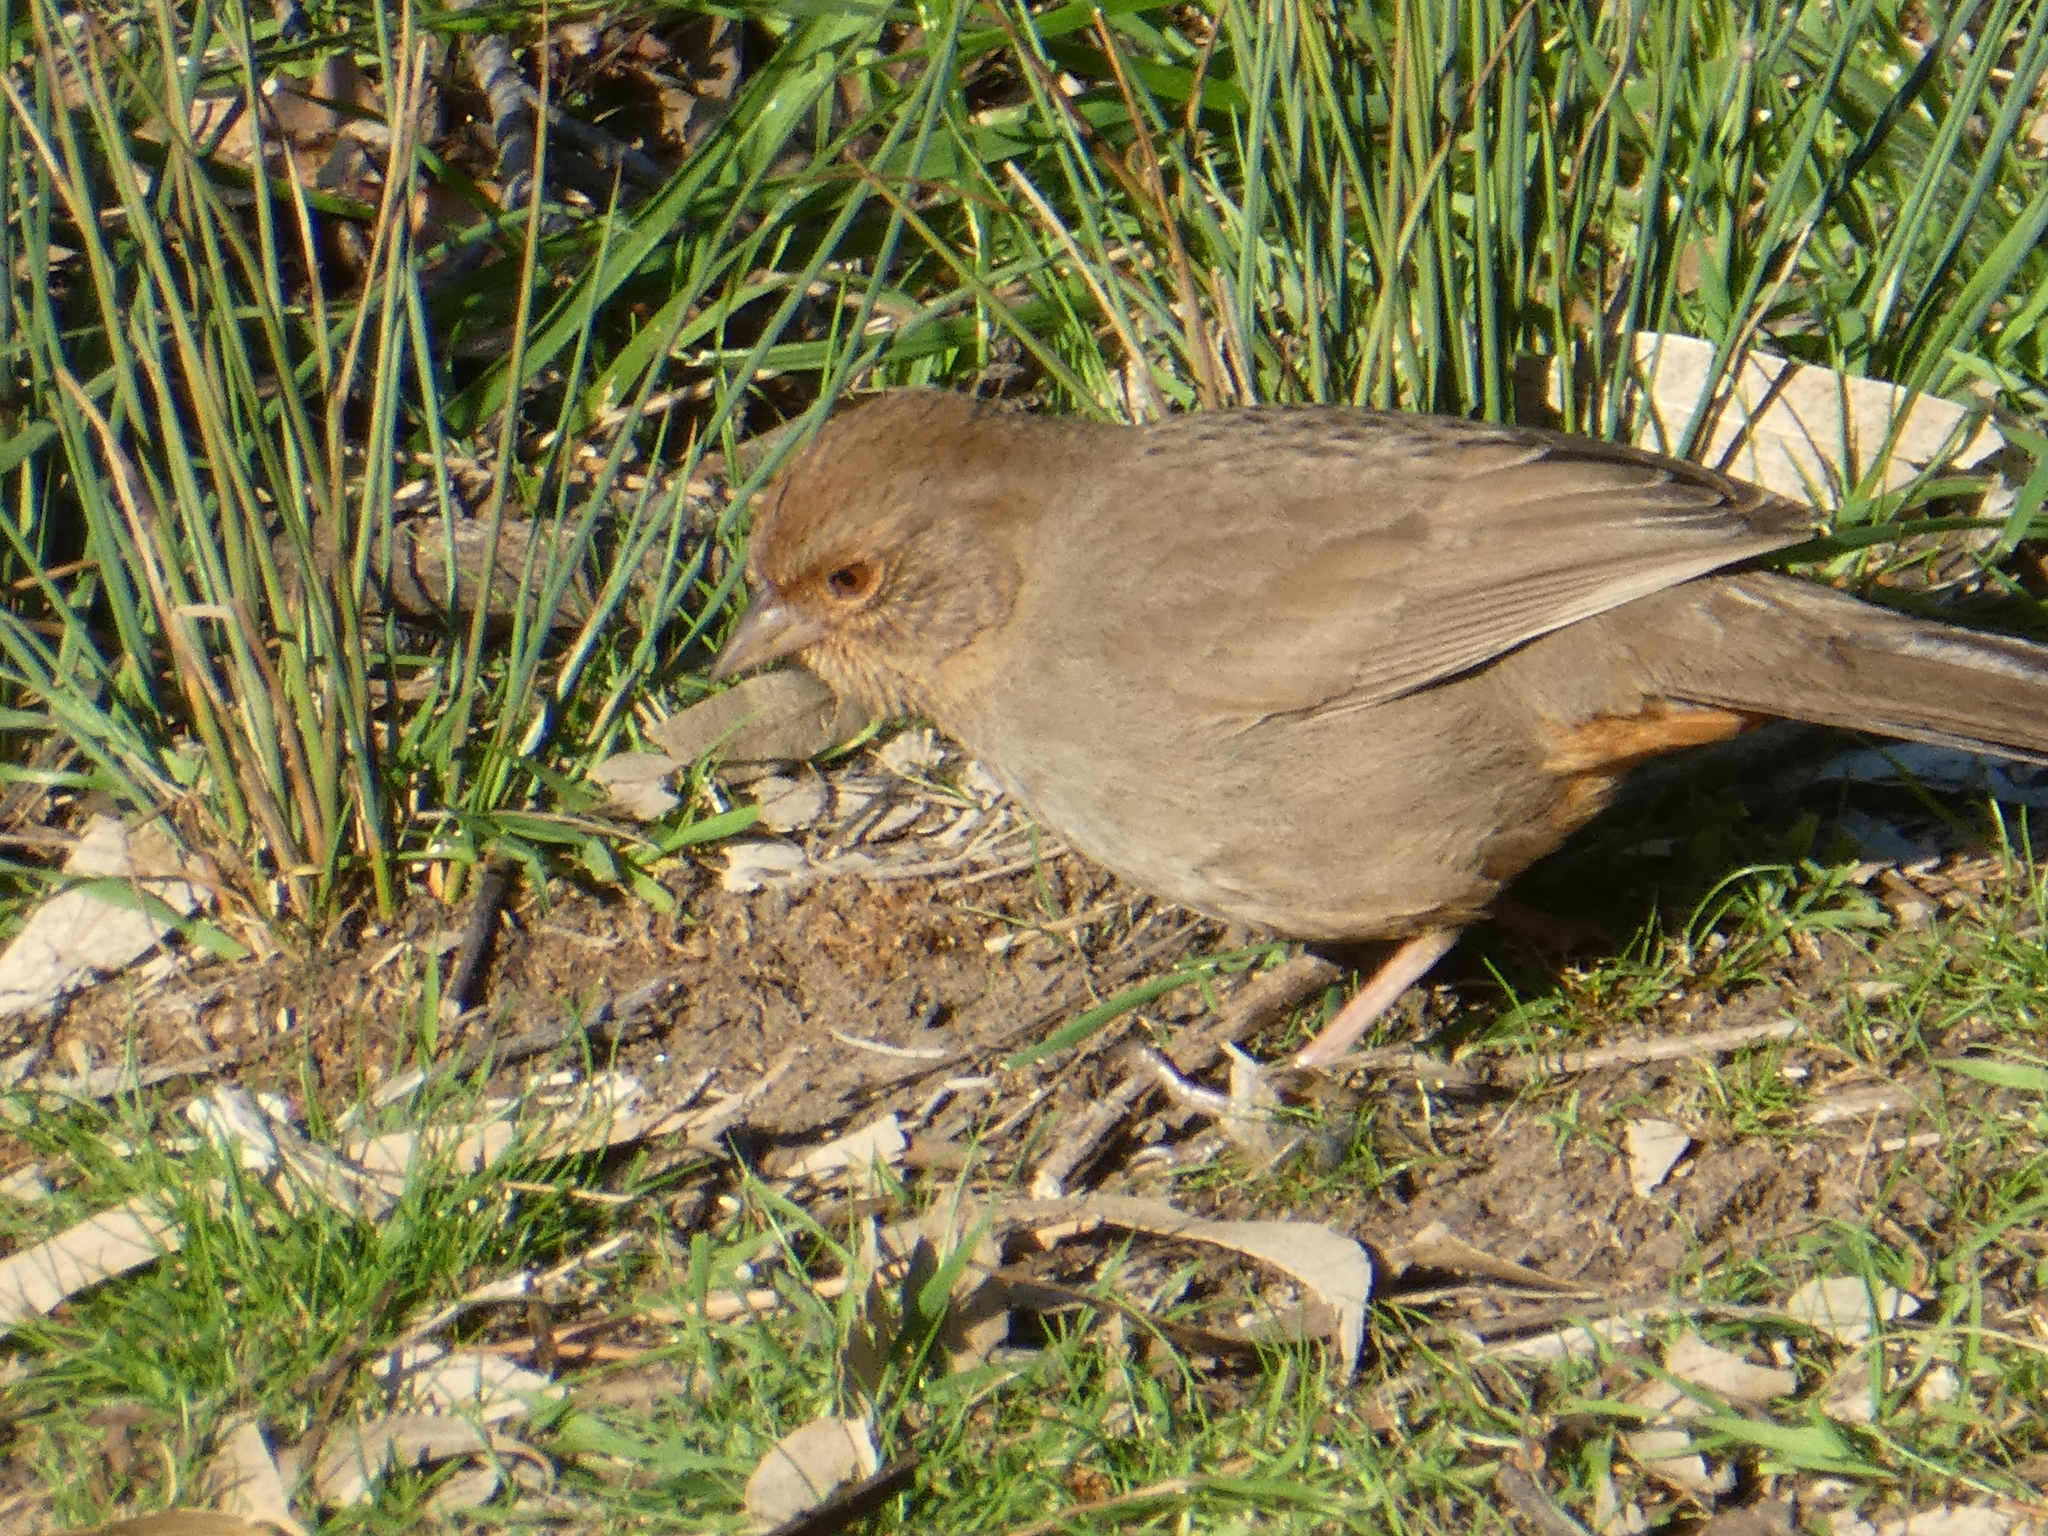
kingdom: Animalia
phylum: Chordata
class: Aves
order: Passeriformes
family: Passerellidae
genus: Melozone
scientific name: Melozone crissalis
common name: California towhee
